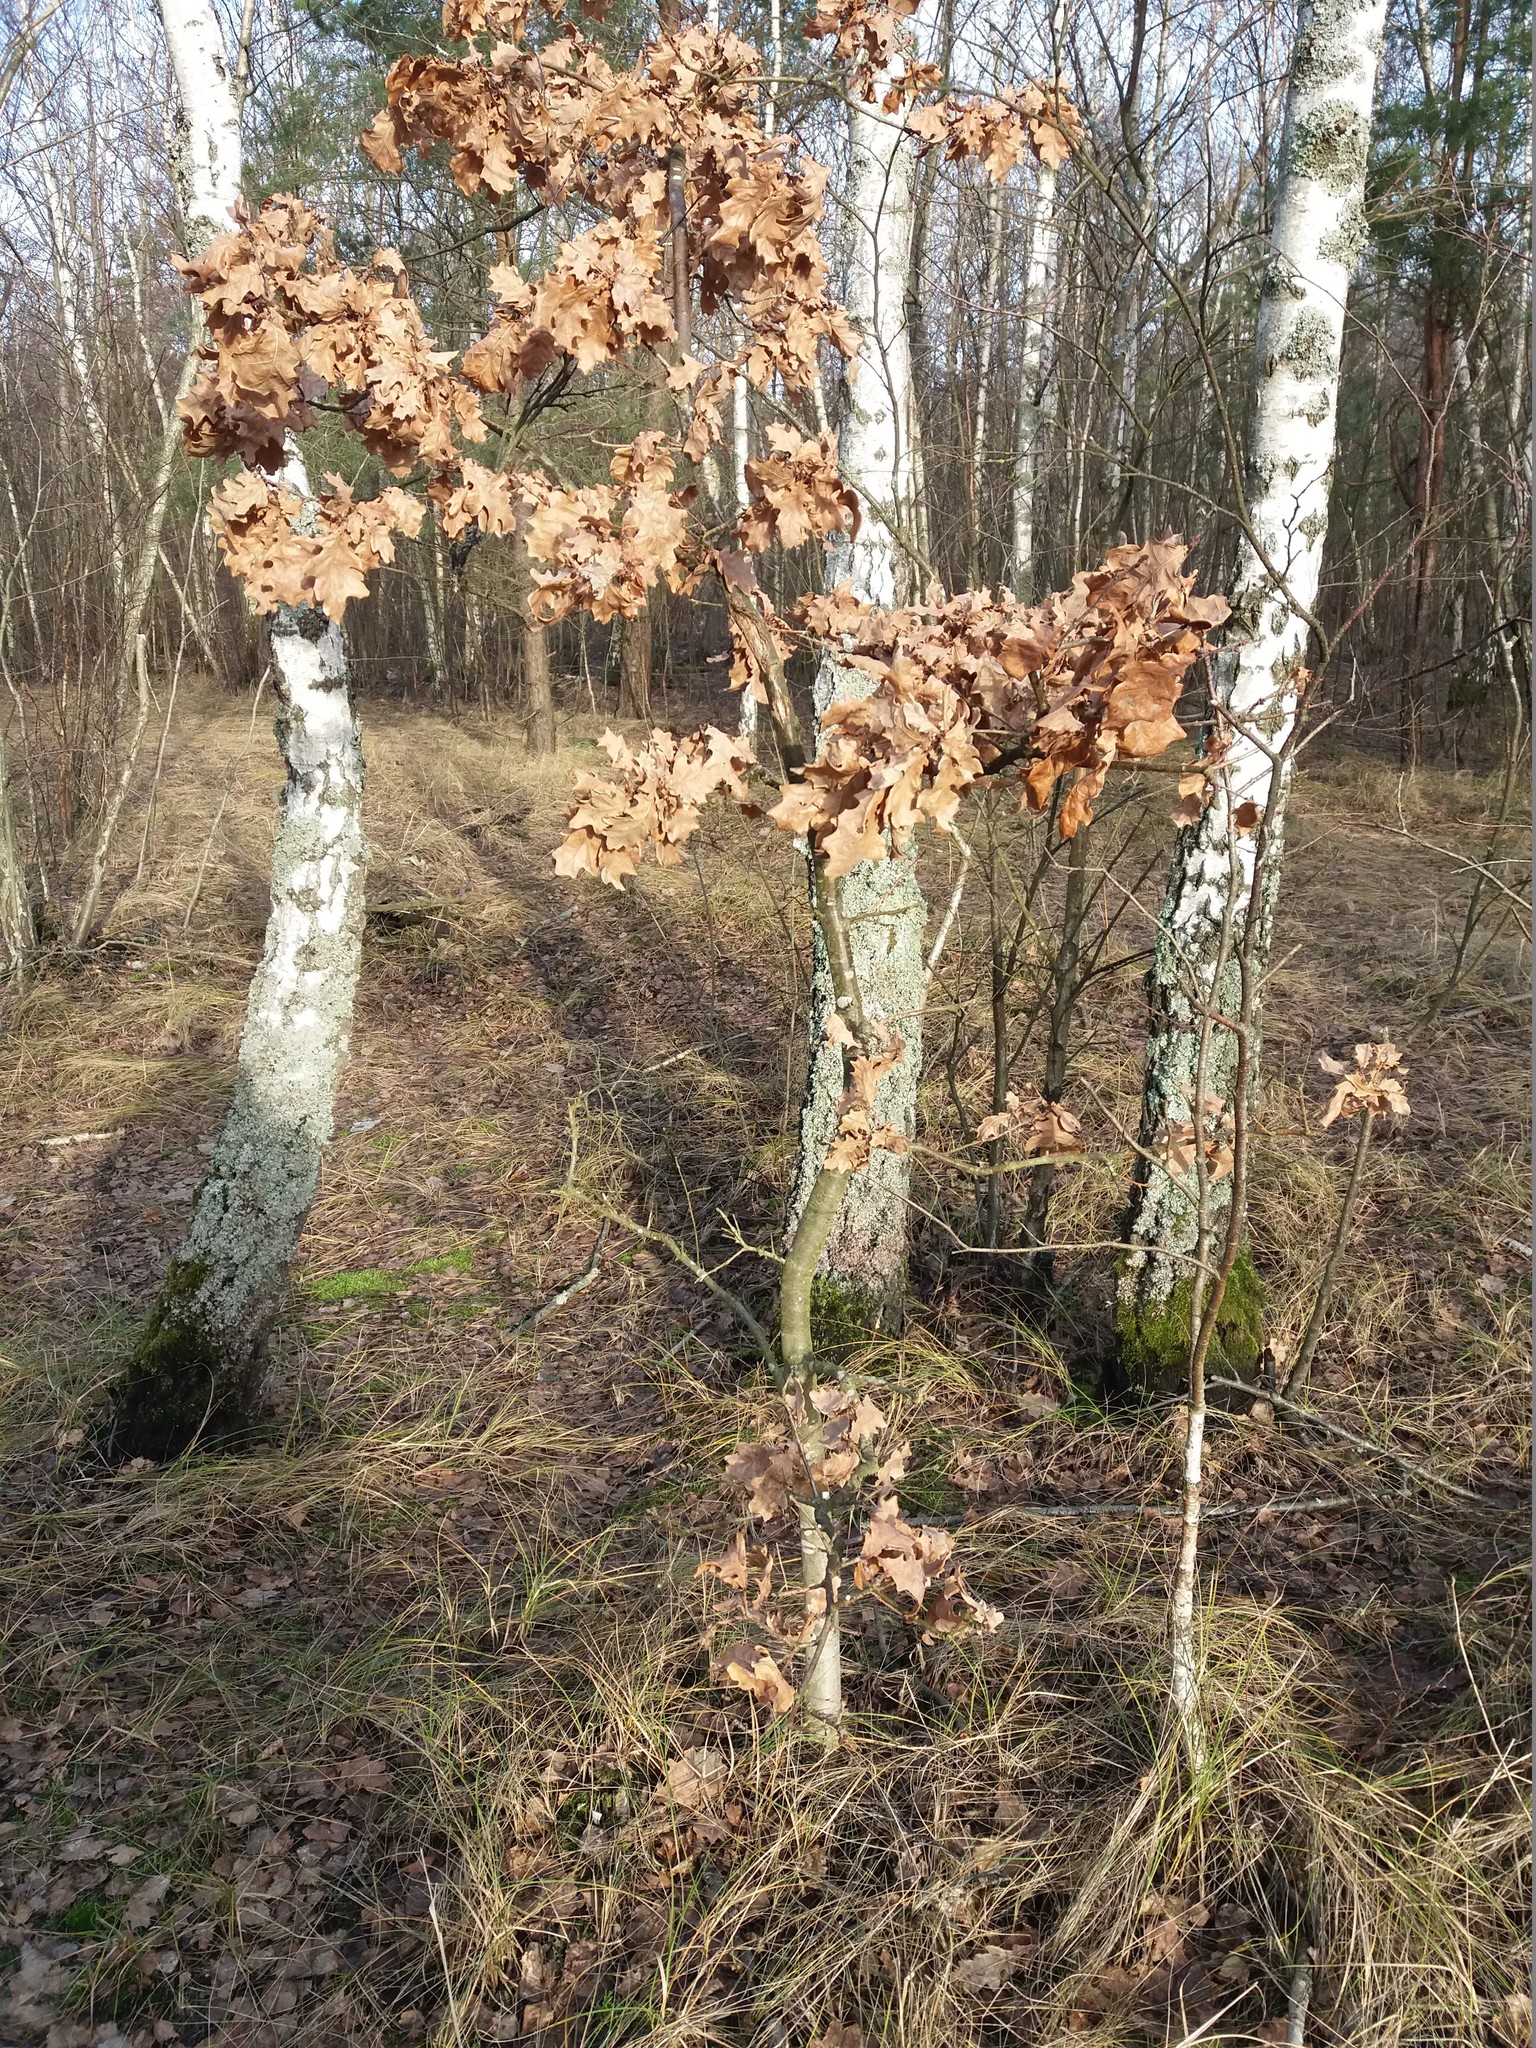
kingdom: Plantae
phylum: Tracheophyta
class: Magnoliopsida
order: Fagales
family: Fagaceae
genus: Quercus
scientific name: Quercus robur
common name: Pedunculate oak
